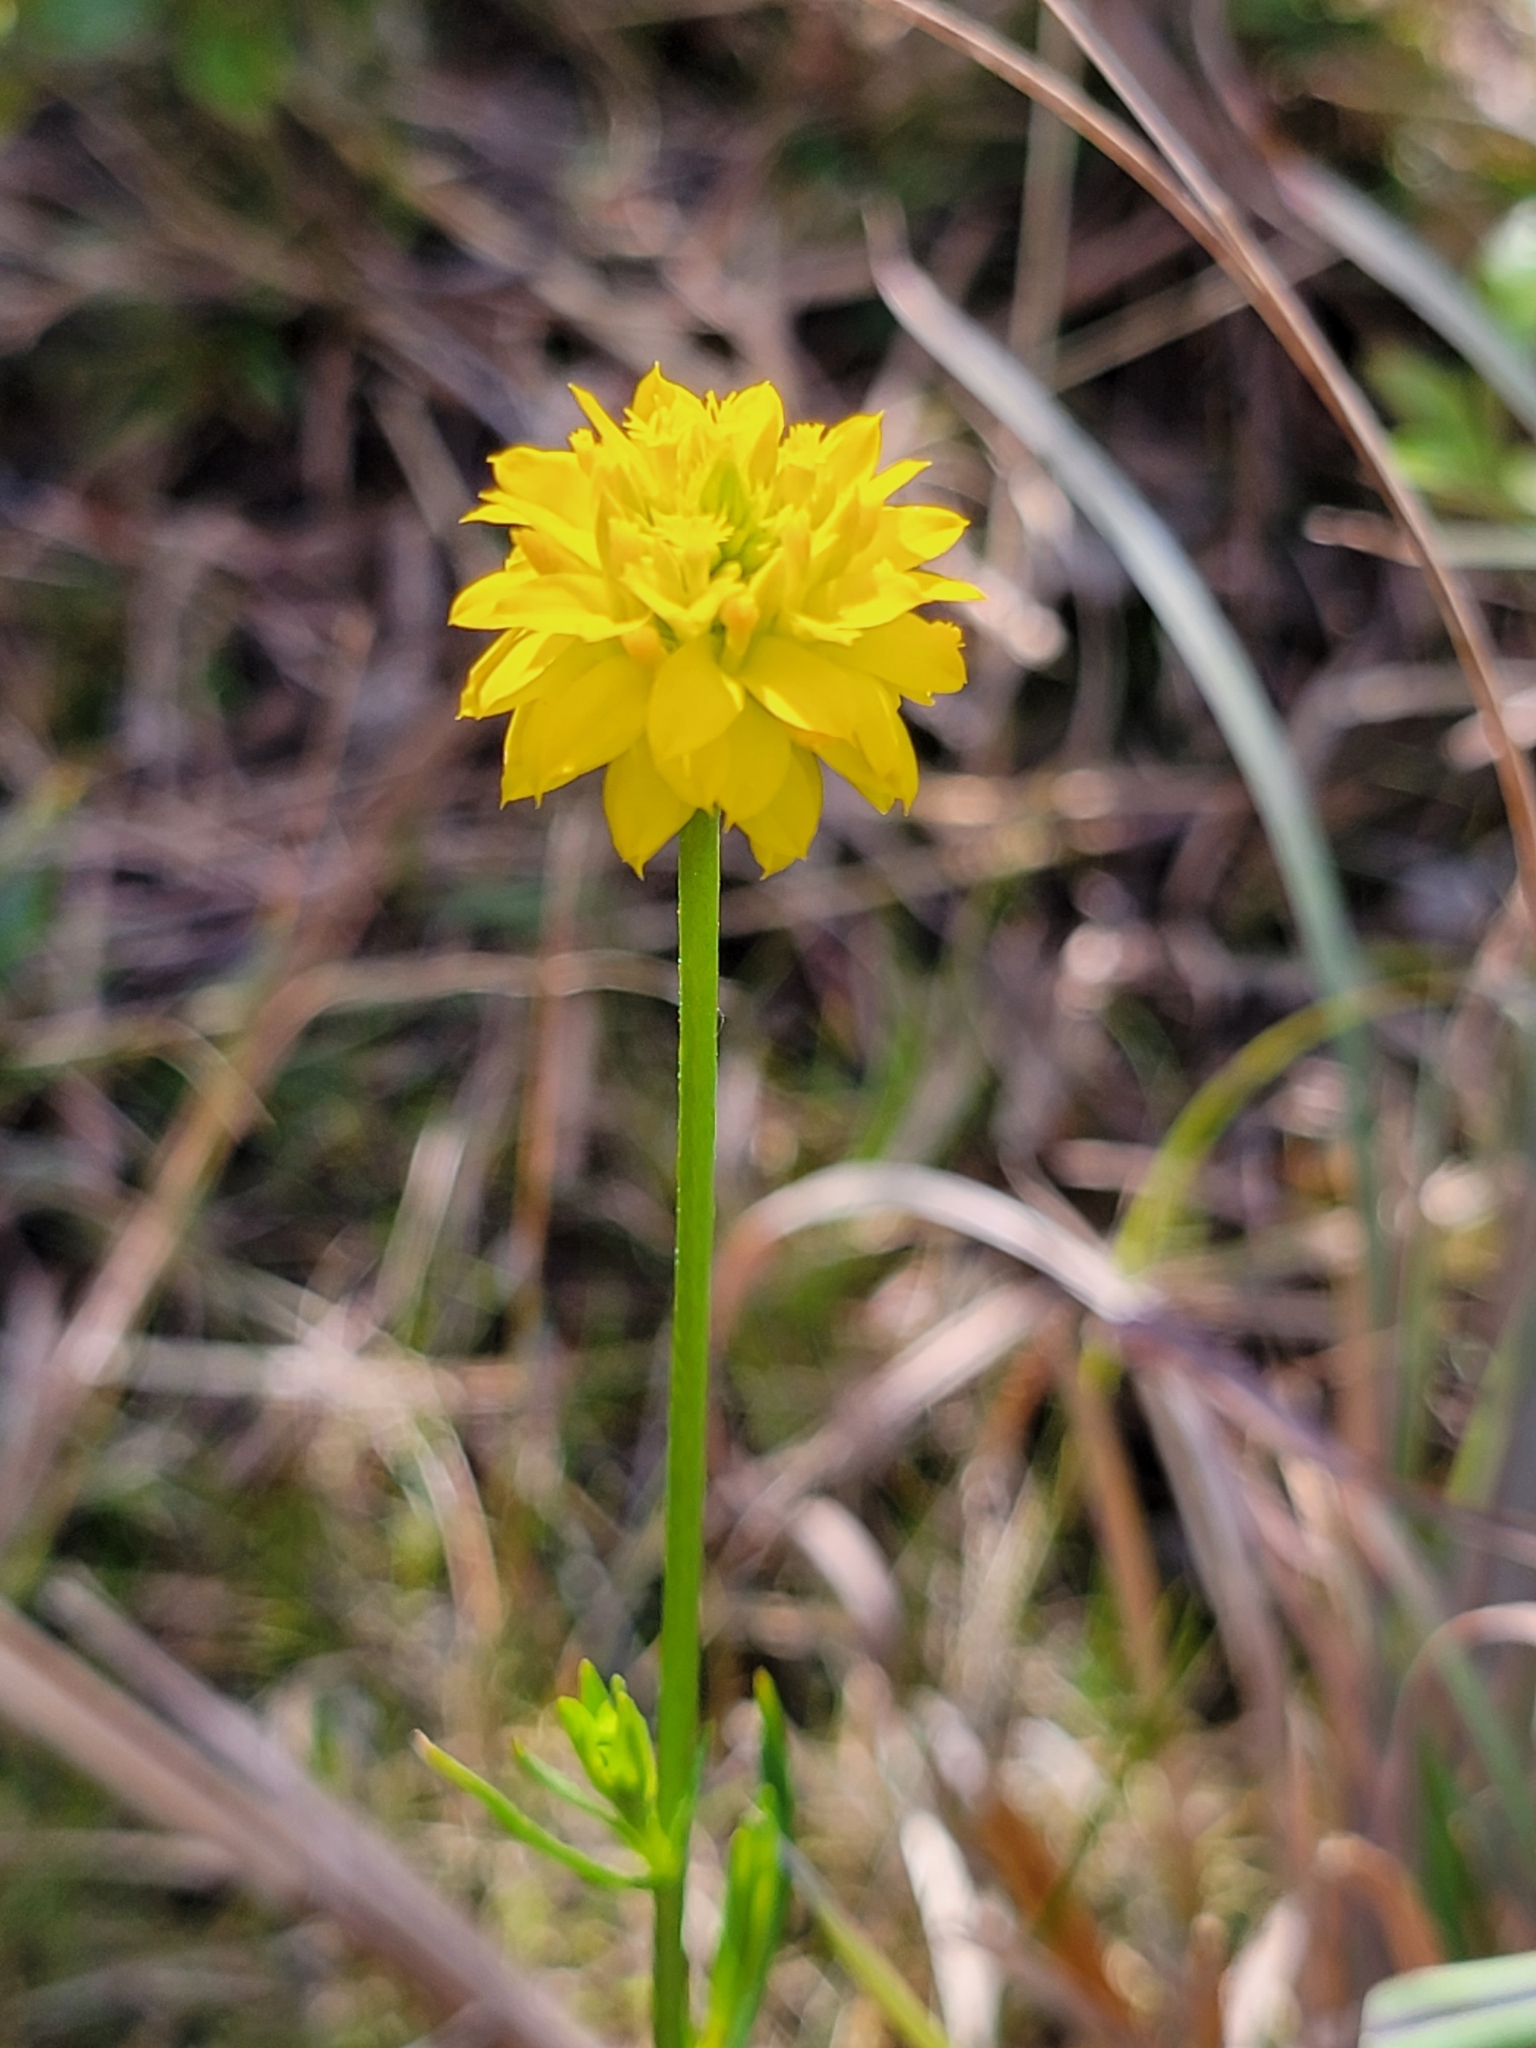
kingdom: Plantae
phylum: Tracheophyta
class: Magnoliopsida
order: Fabales
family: Polygalaceae
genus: Polygala
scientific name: Polygala rugelii
